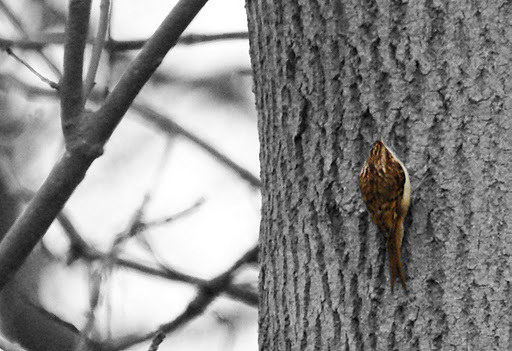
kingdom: Animalia
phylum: Chordata
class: Aves
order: Passeriformes
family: Certhiidae
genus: Certhia
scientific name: Certhia familiaris
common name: Eurasian treecreeper
